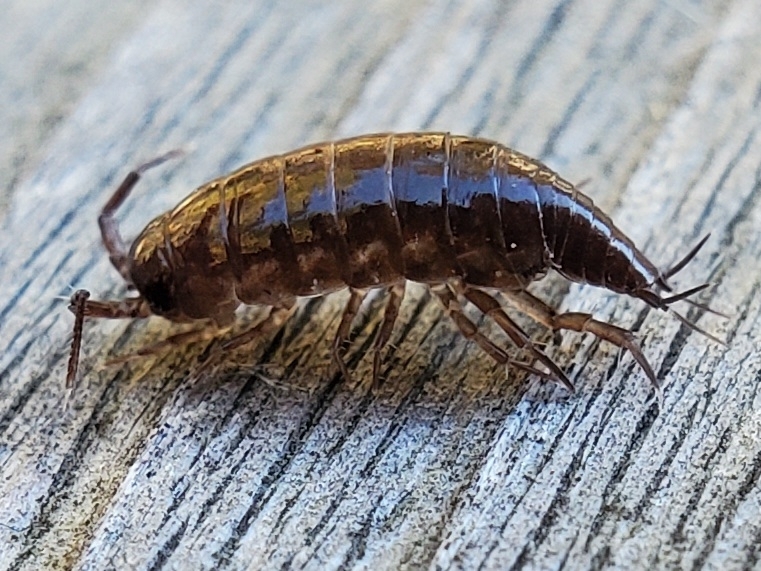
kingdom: Animalia
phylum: Arthropoda
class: Malacostraca
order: Isopoda
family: Ligiidae
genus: Ligidium
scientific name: Ligidium gracile
